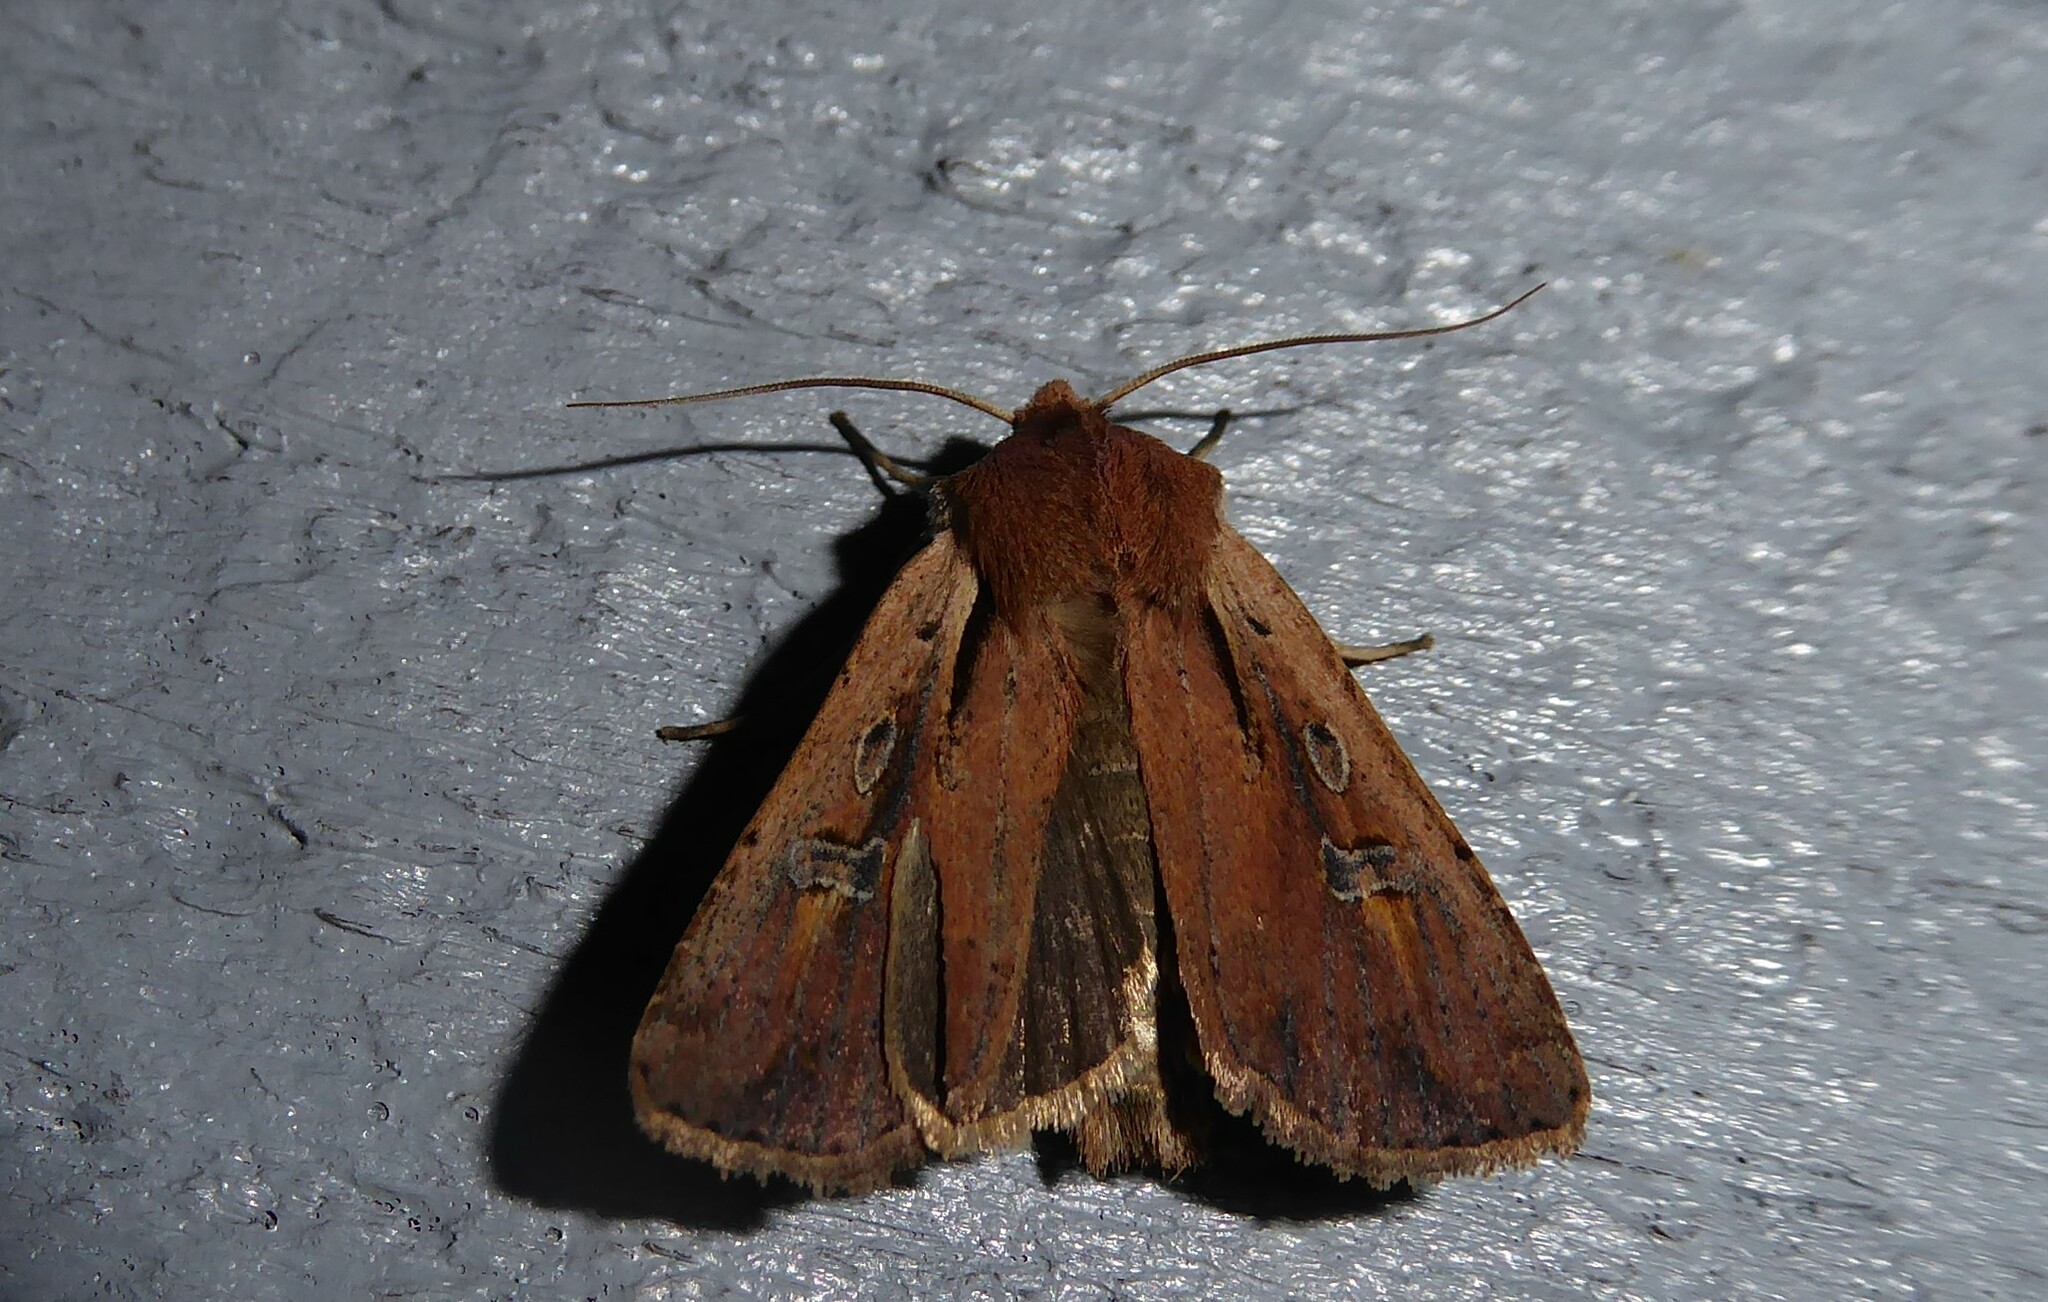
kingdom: Animalia
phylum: Arthropoda
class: Insecta
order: Lepidoptera
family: Noctuidae
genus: Ichneutica
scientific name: Ichneutica atristriga
